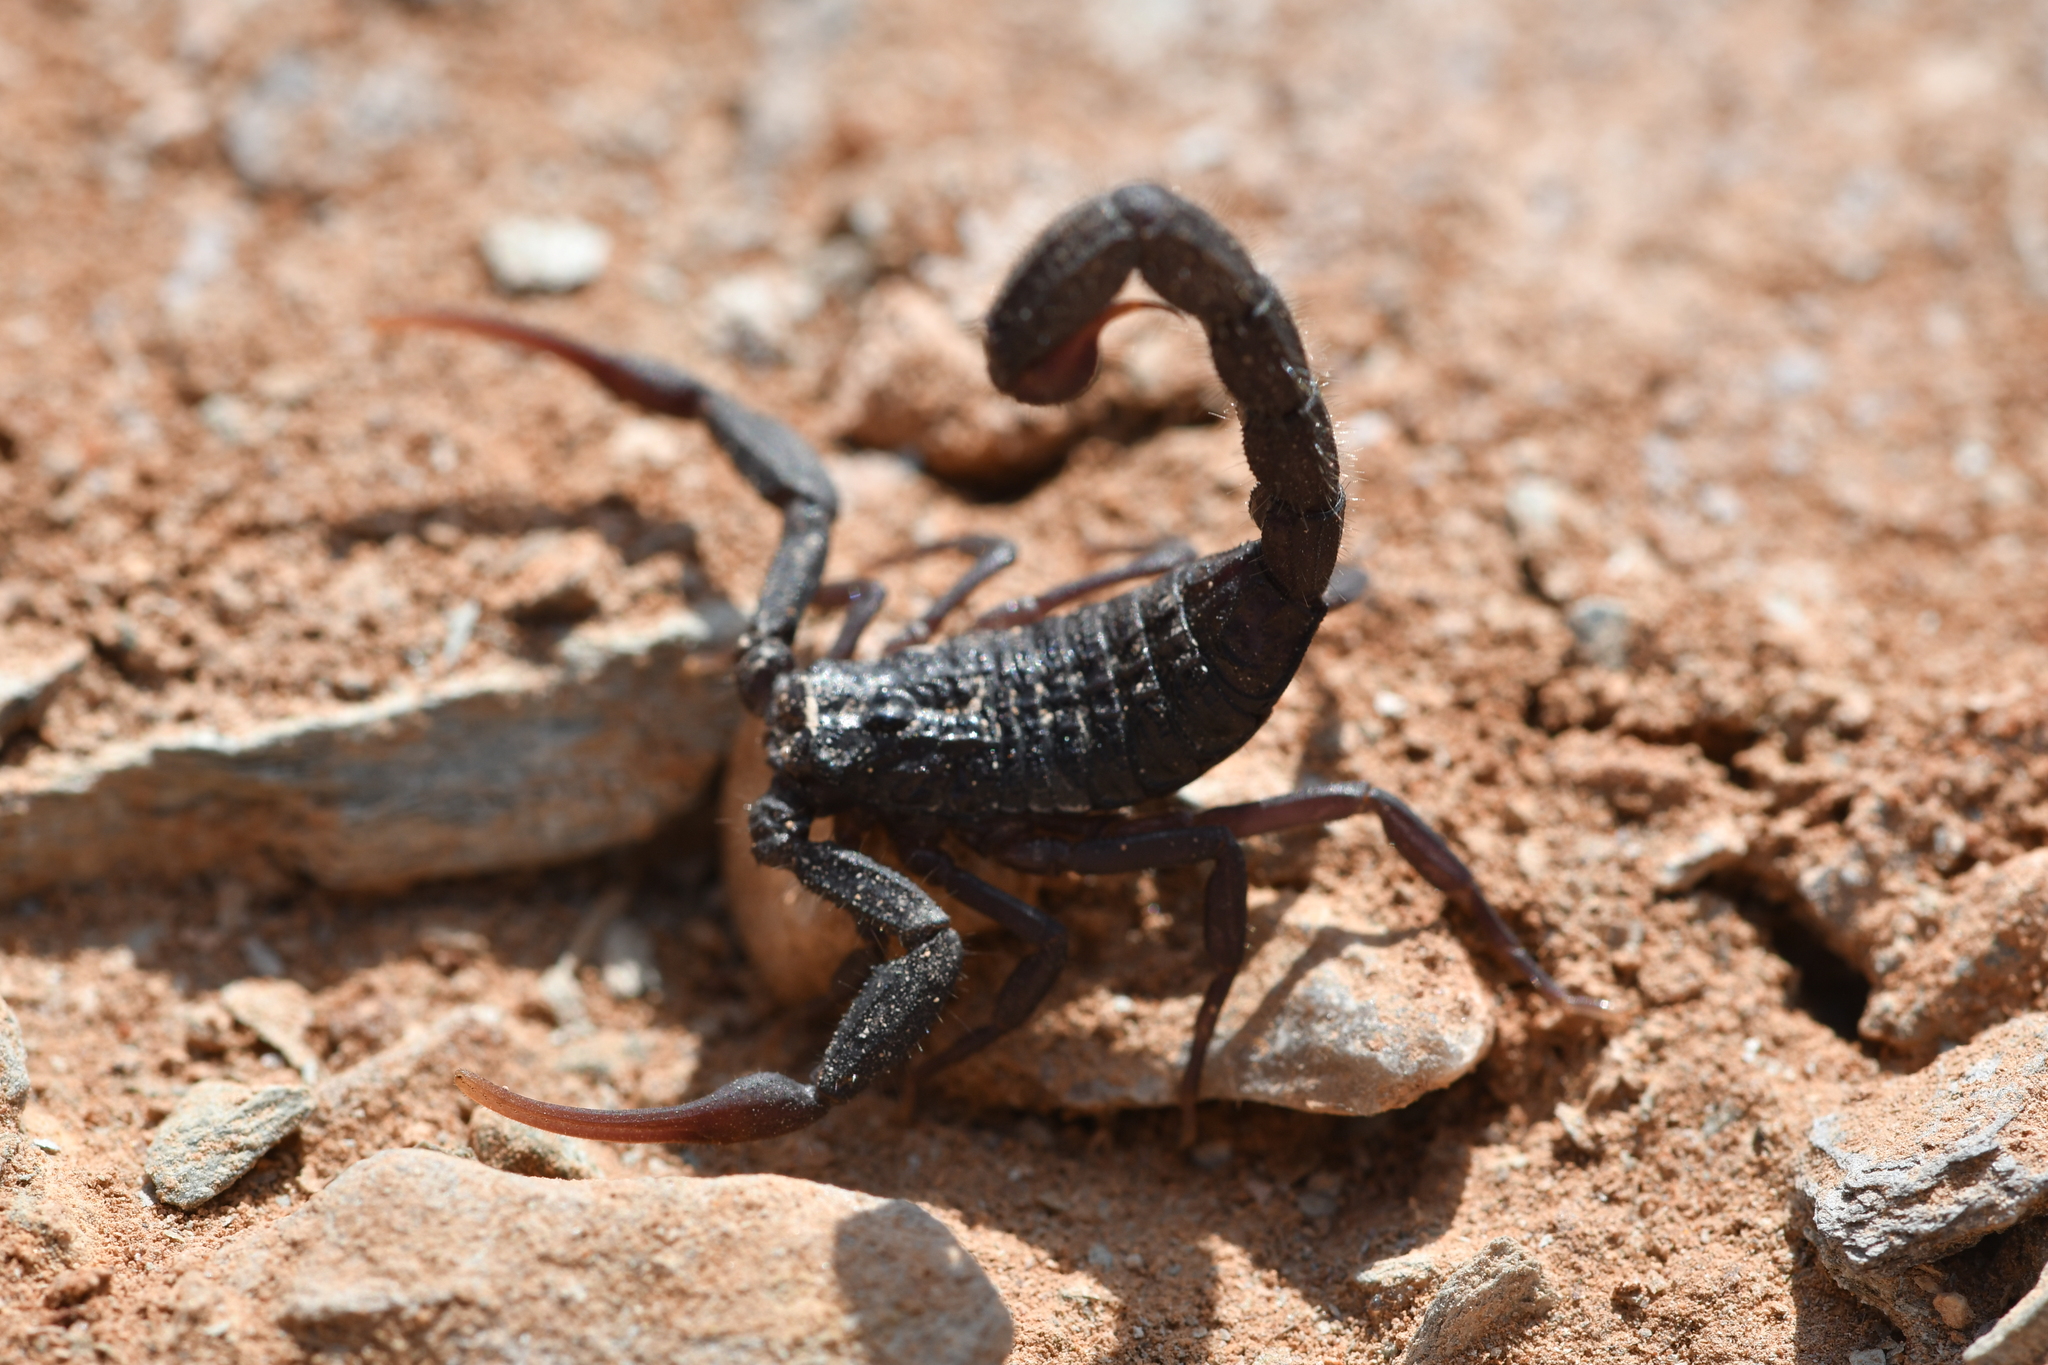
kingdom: Animalia
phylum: Arthropoda
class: Arachnida
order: Scorpiones
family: Buthidae
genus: Hottentotta
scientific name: Hottentotta gentili
